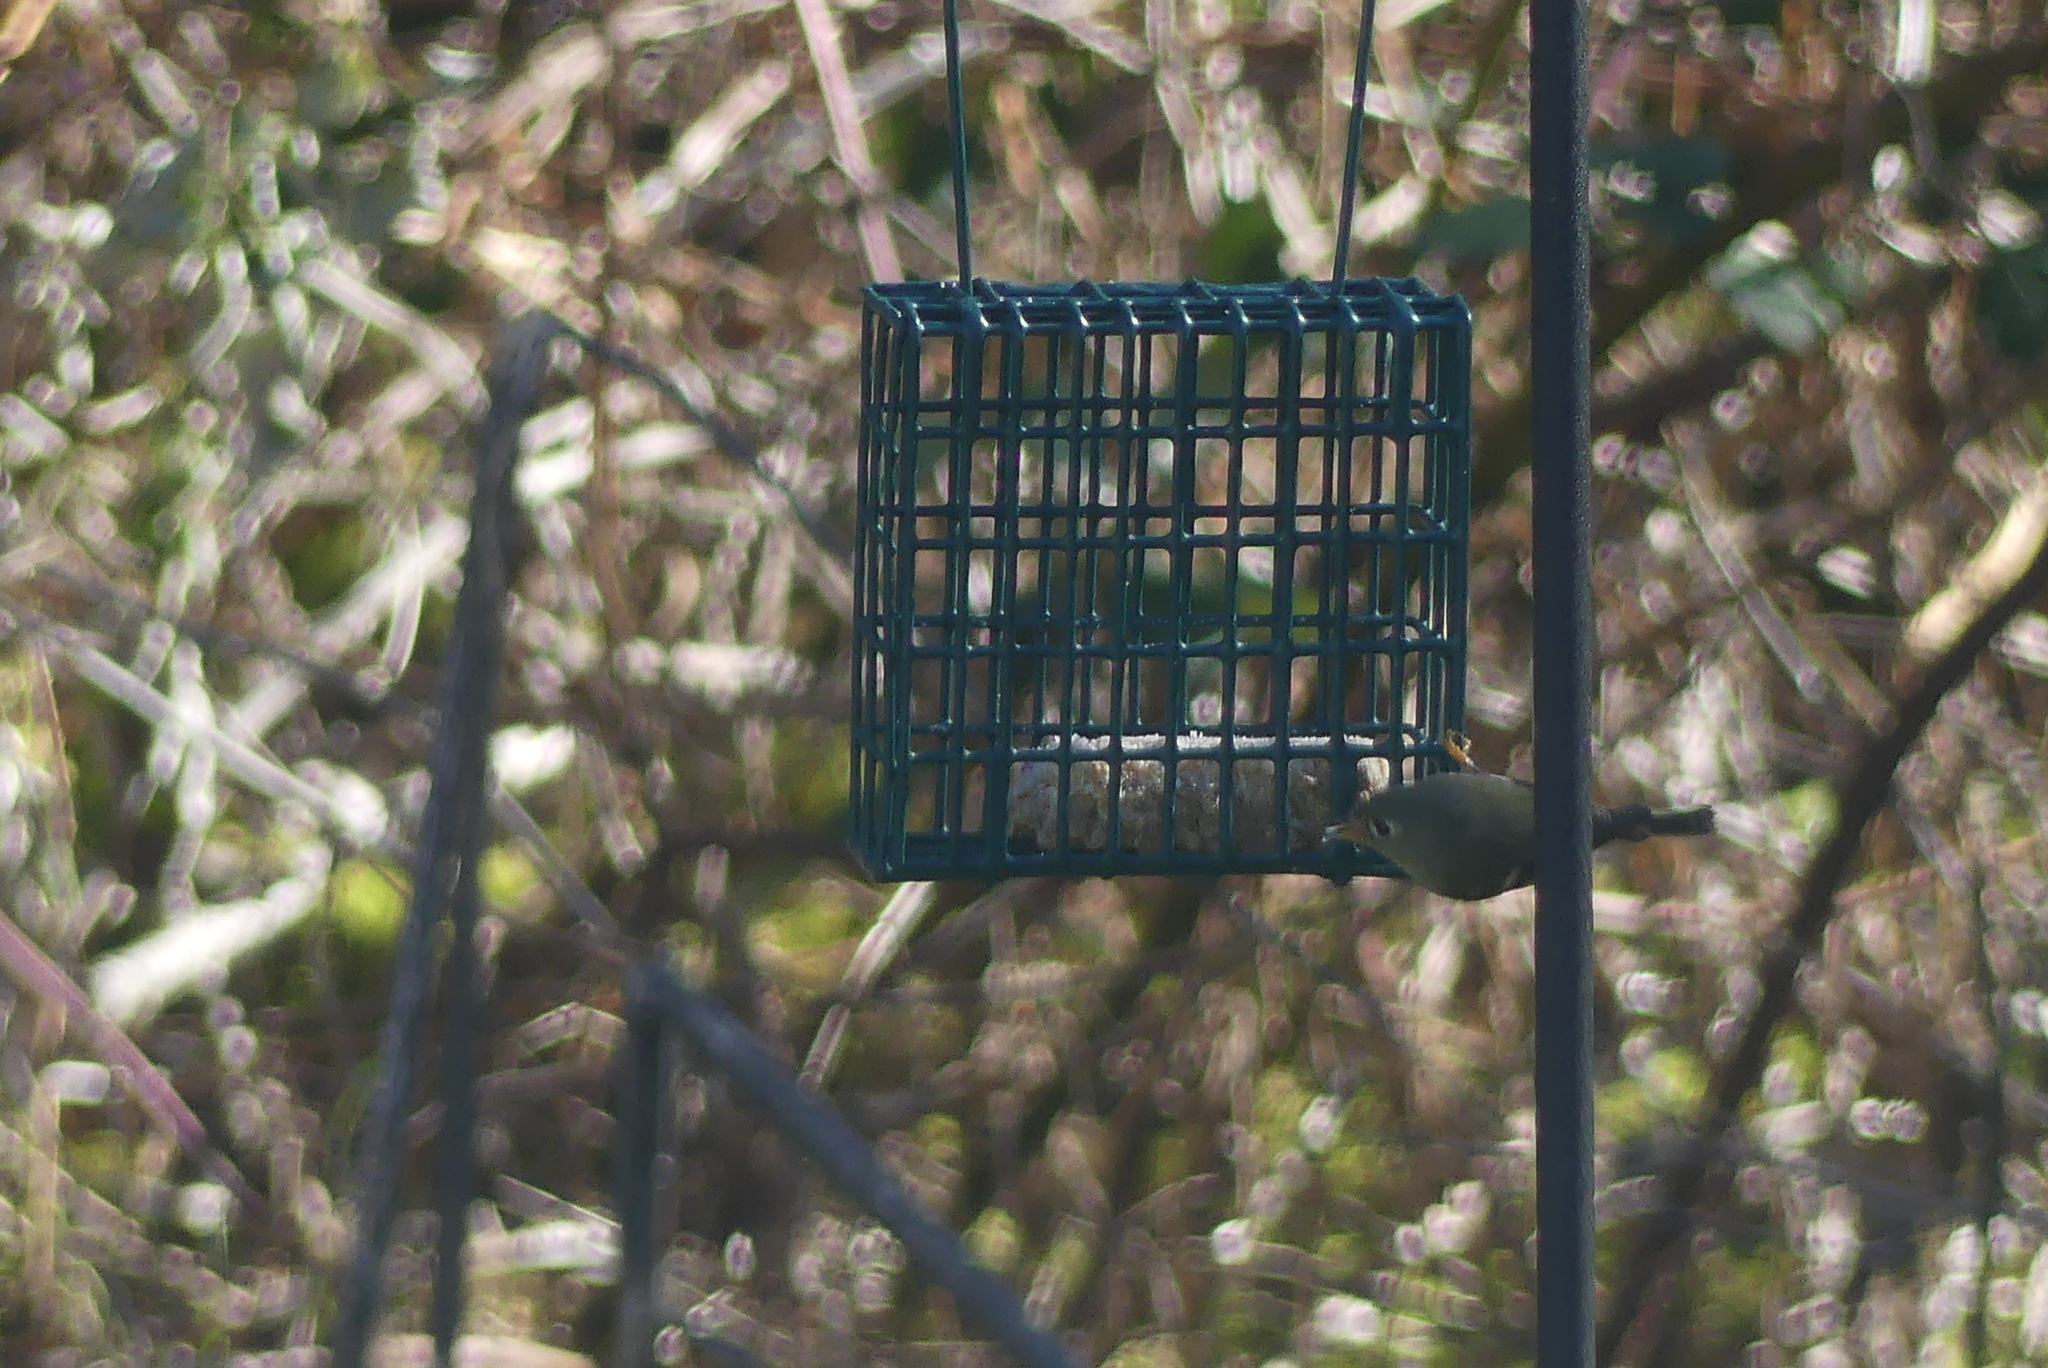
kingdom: Animalia
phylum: Chordata
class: Aves
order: Passeriformes
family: Regulidae
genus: Regulus
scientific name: Regulus calendula
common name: Ruby-crowned kinglet
